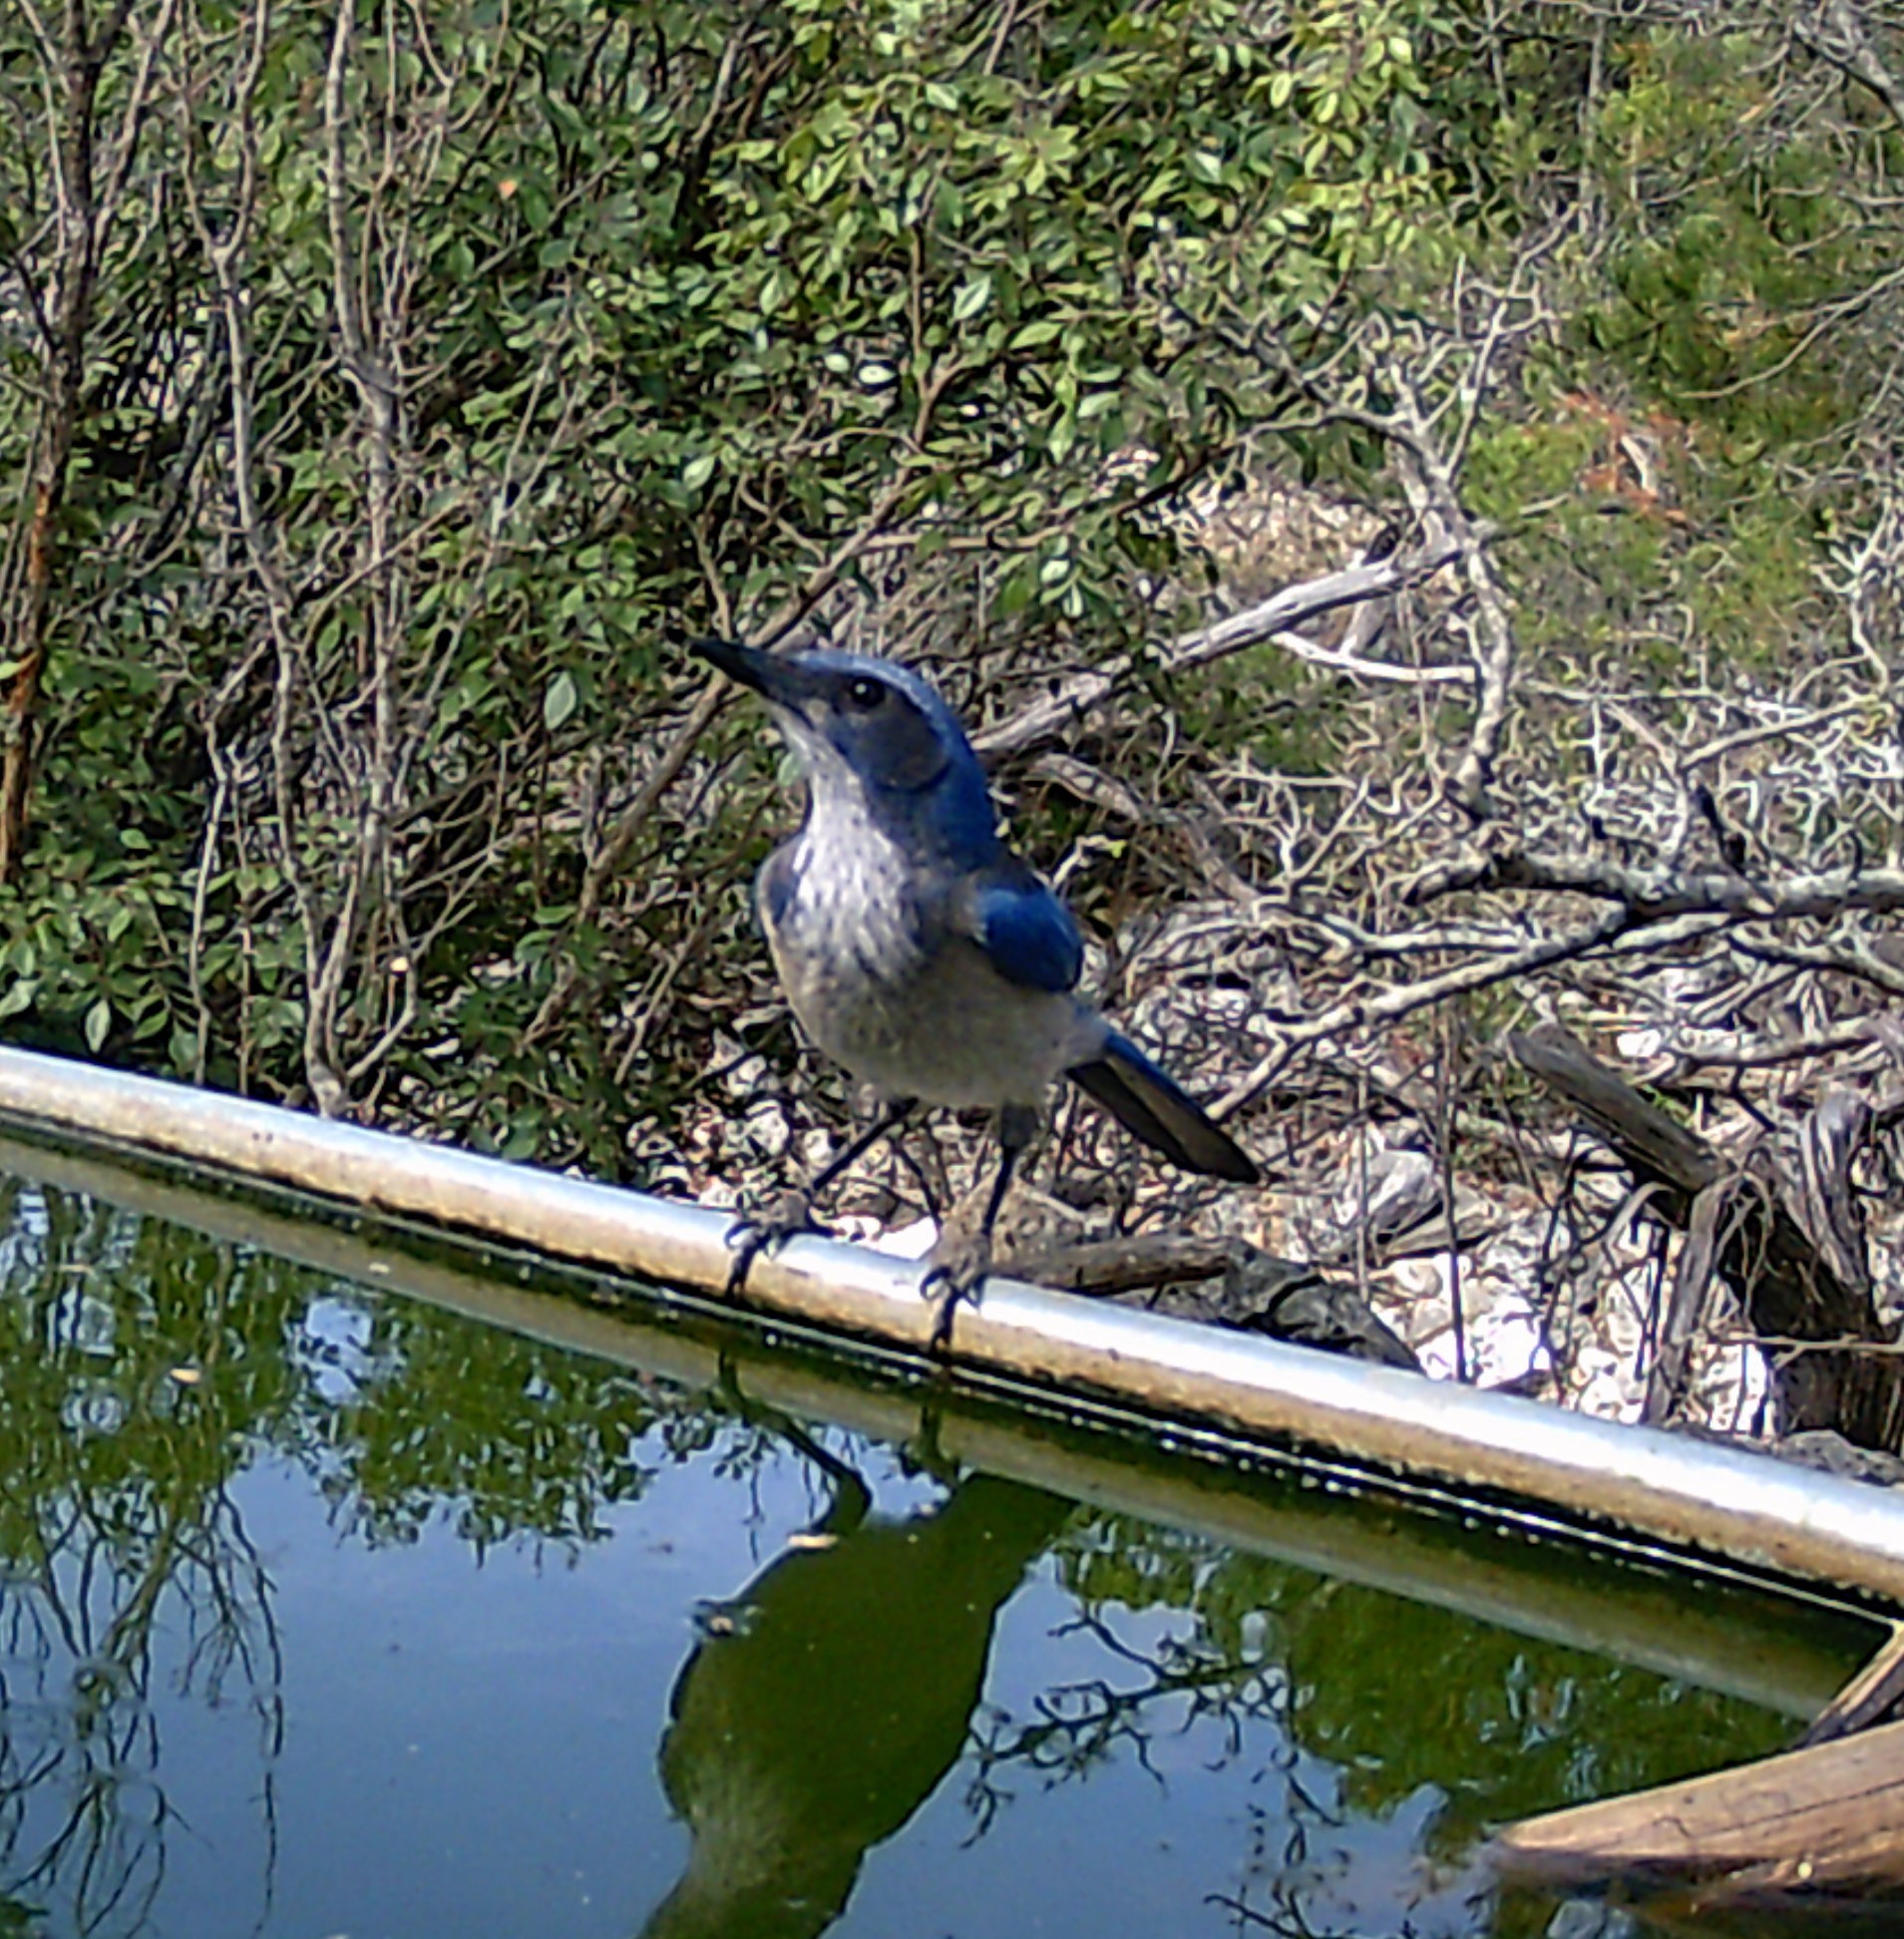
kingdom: Animalia
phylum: Chordata
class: Aves
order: Passeriformes
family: Corvidae
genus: Aphelocoma
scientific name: Aphelocoma woodhouseii
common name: Woodhouse's scrub-jay
